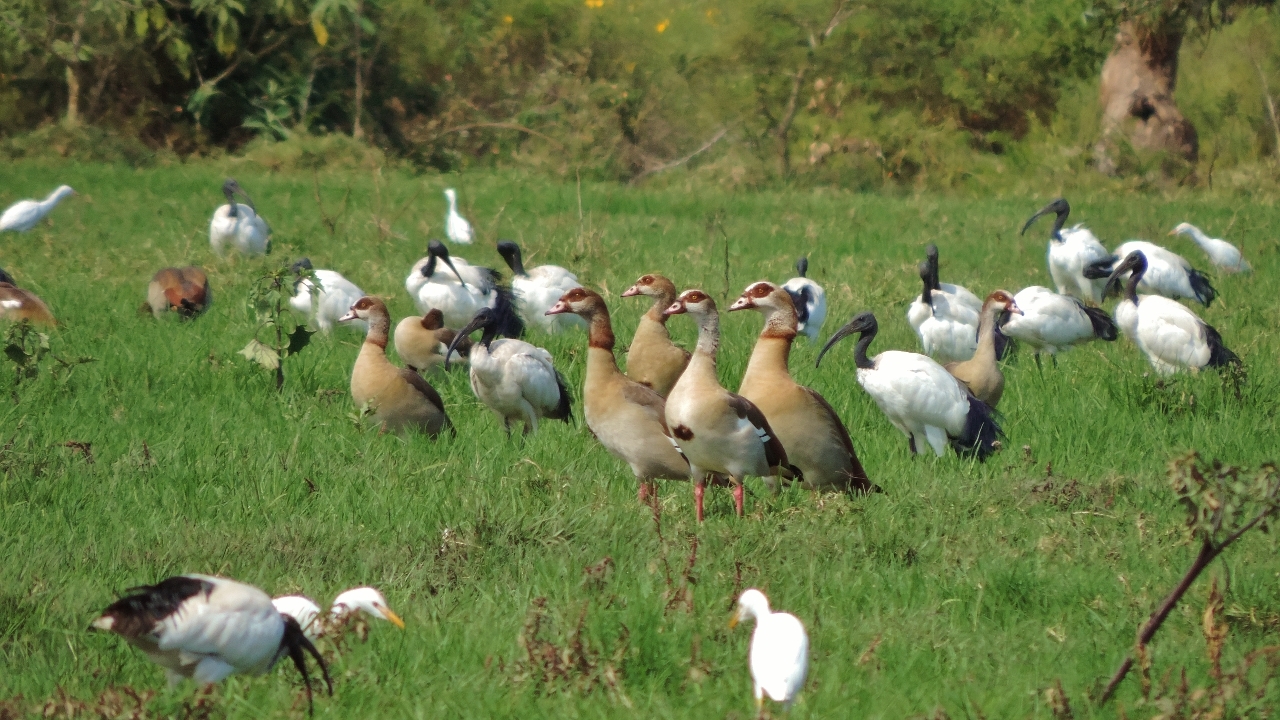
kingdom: Animalia
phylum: Chordata
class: Aves
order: Anseriformes
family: Anatidae
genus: Alopochen
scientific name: Alopochen aegyptiaca
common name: Egyptian goose
